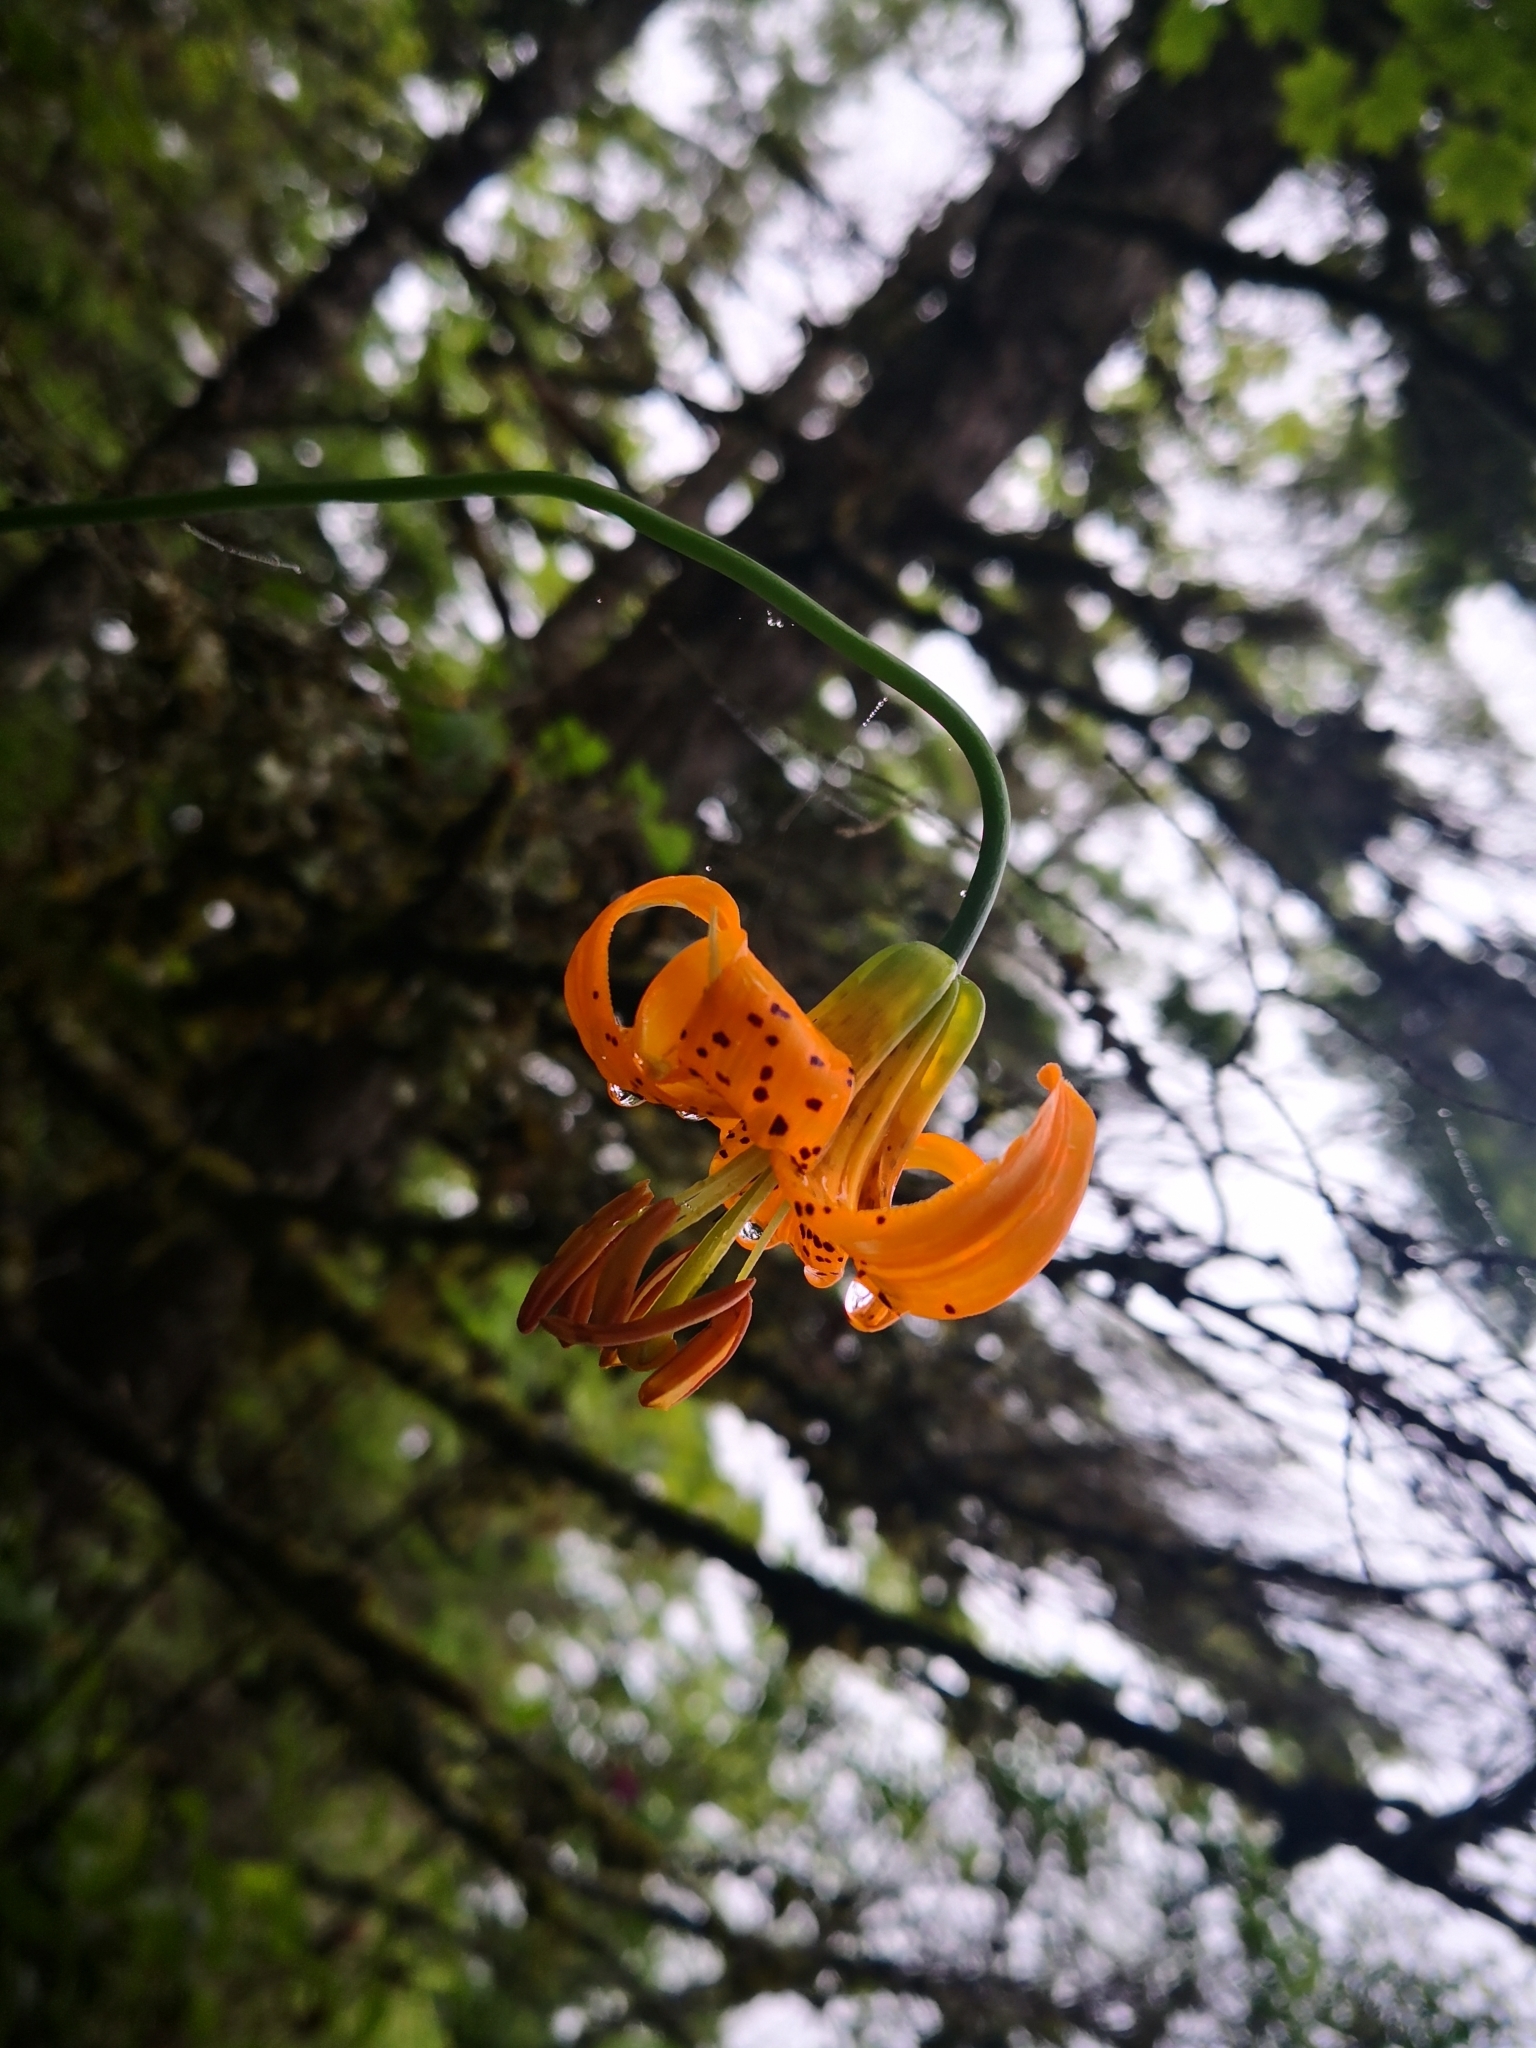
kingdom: Plantae
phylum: Tracheophyta
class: Liliopsida
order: Liliales
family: Liliaceae
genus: Lilium
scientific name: Lilium columbianum
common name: Columbia lily
